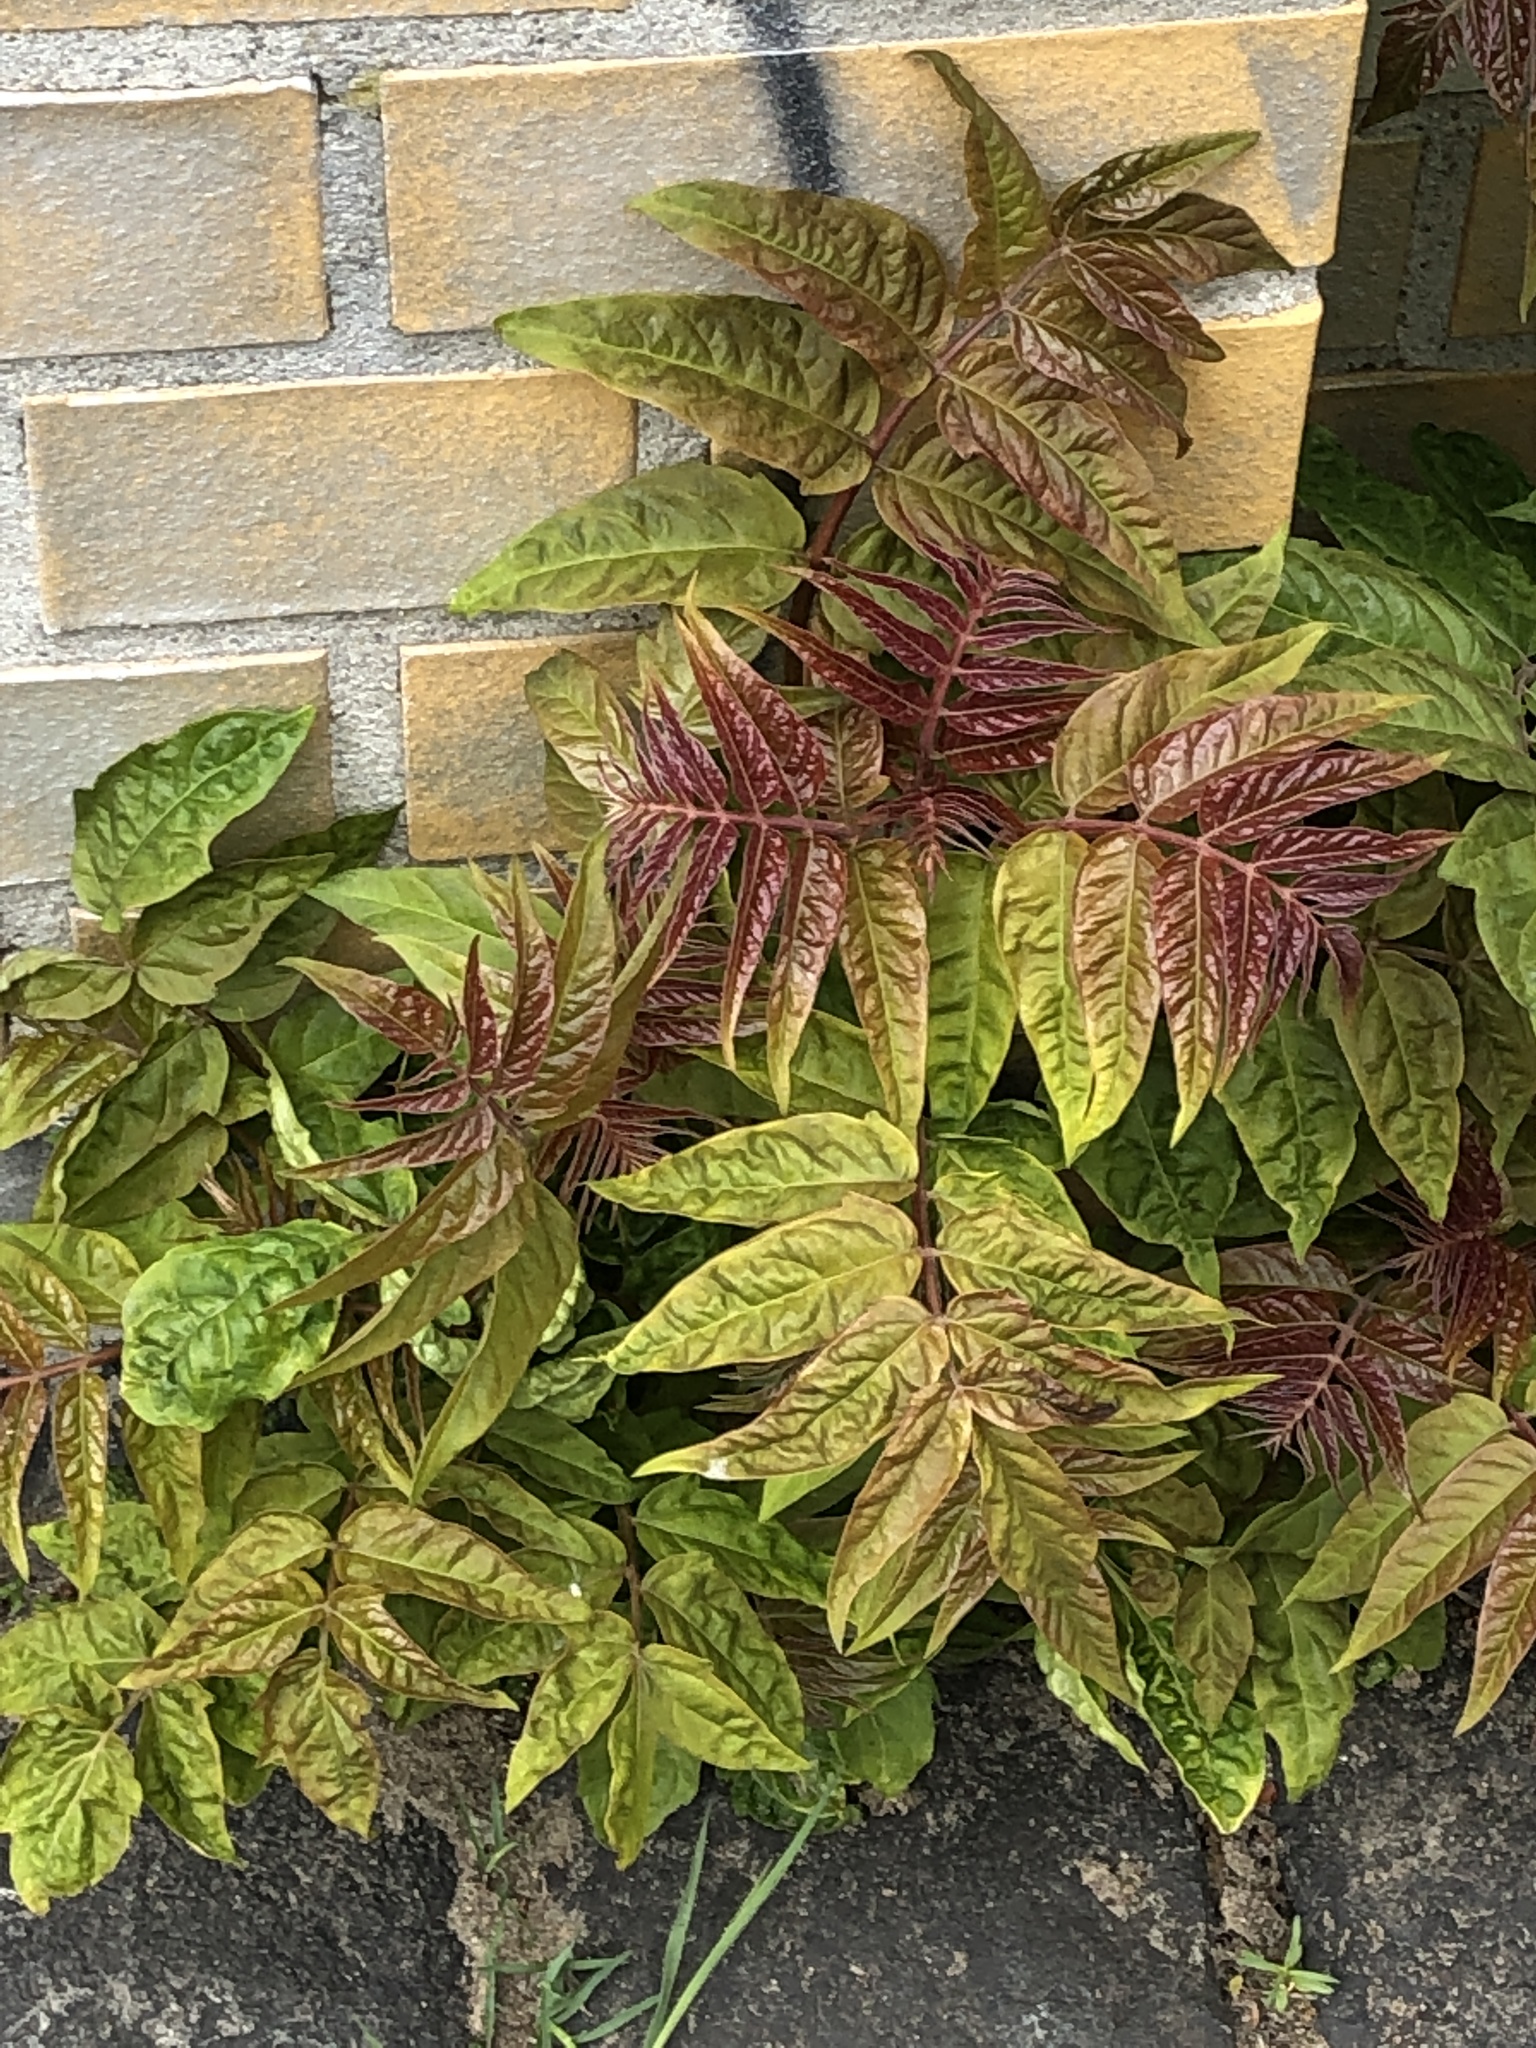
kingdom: Plantae
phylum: Tracheophyta
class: Magnoliopsida
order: Sapindales
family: Simaroubaceae
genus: Ailanthus
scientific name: Ailanthus altissima
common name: Tree-of-heaven
